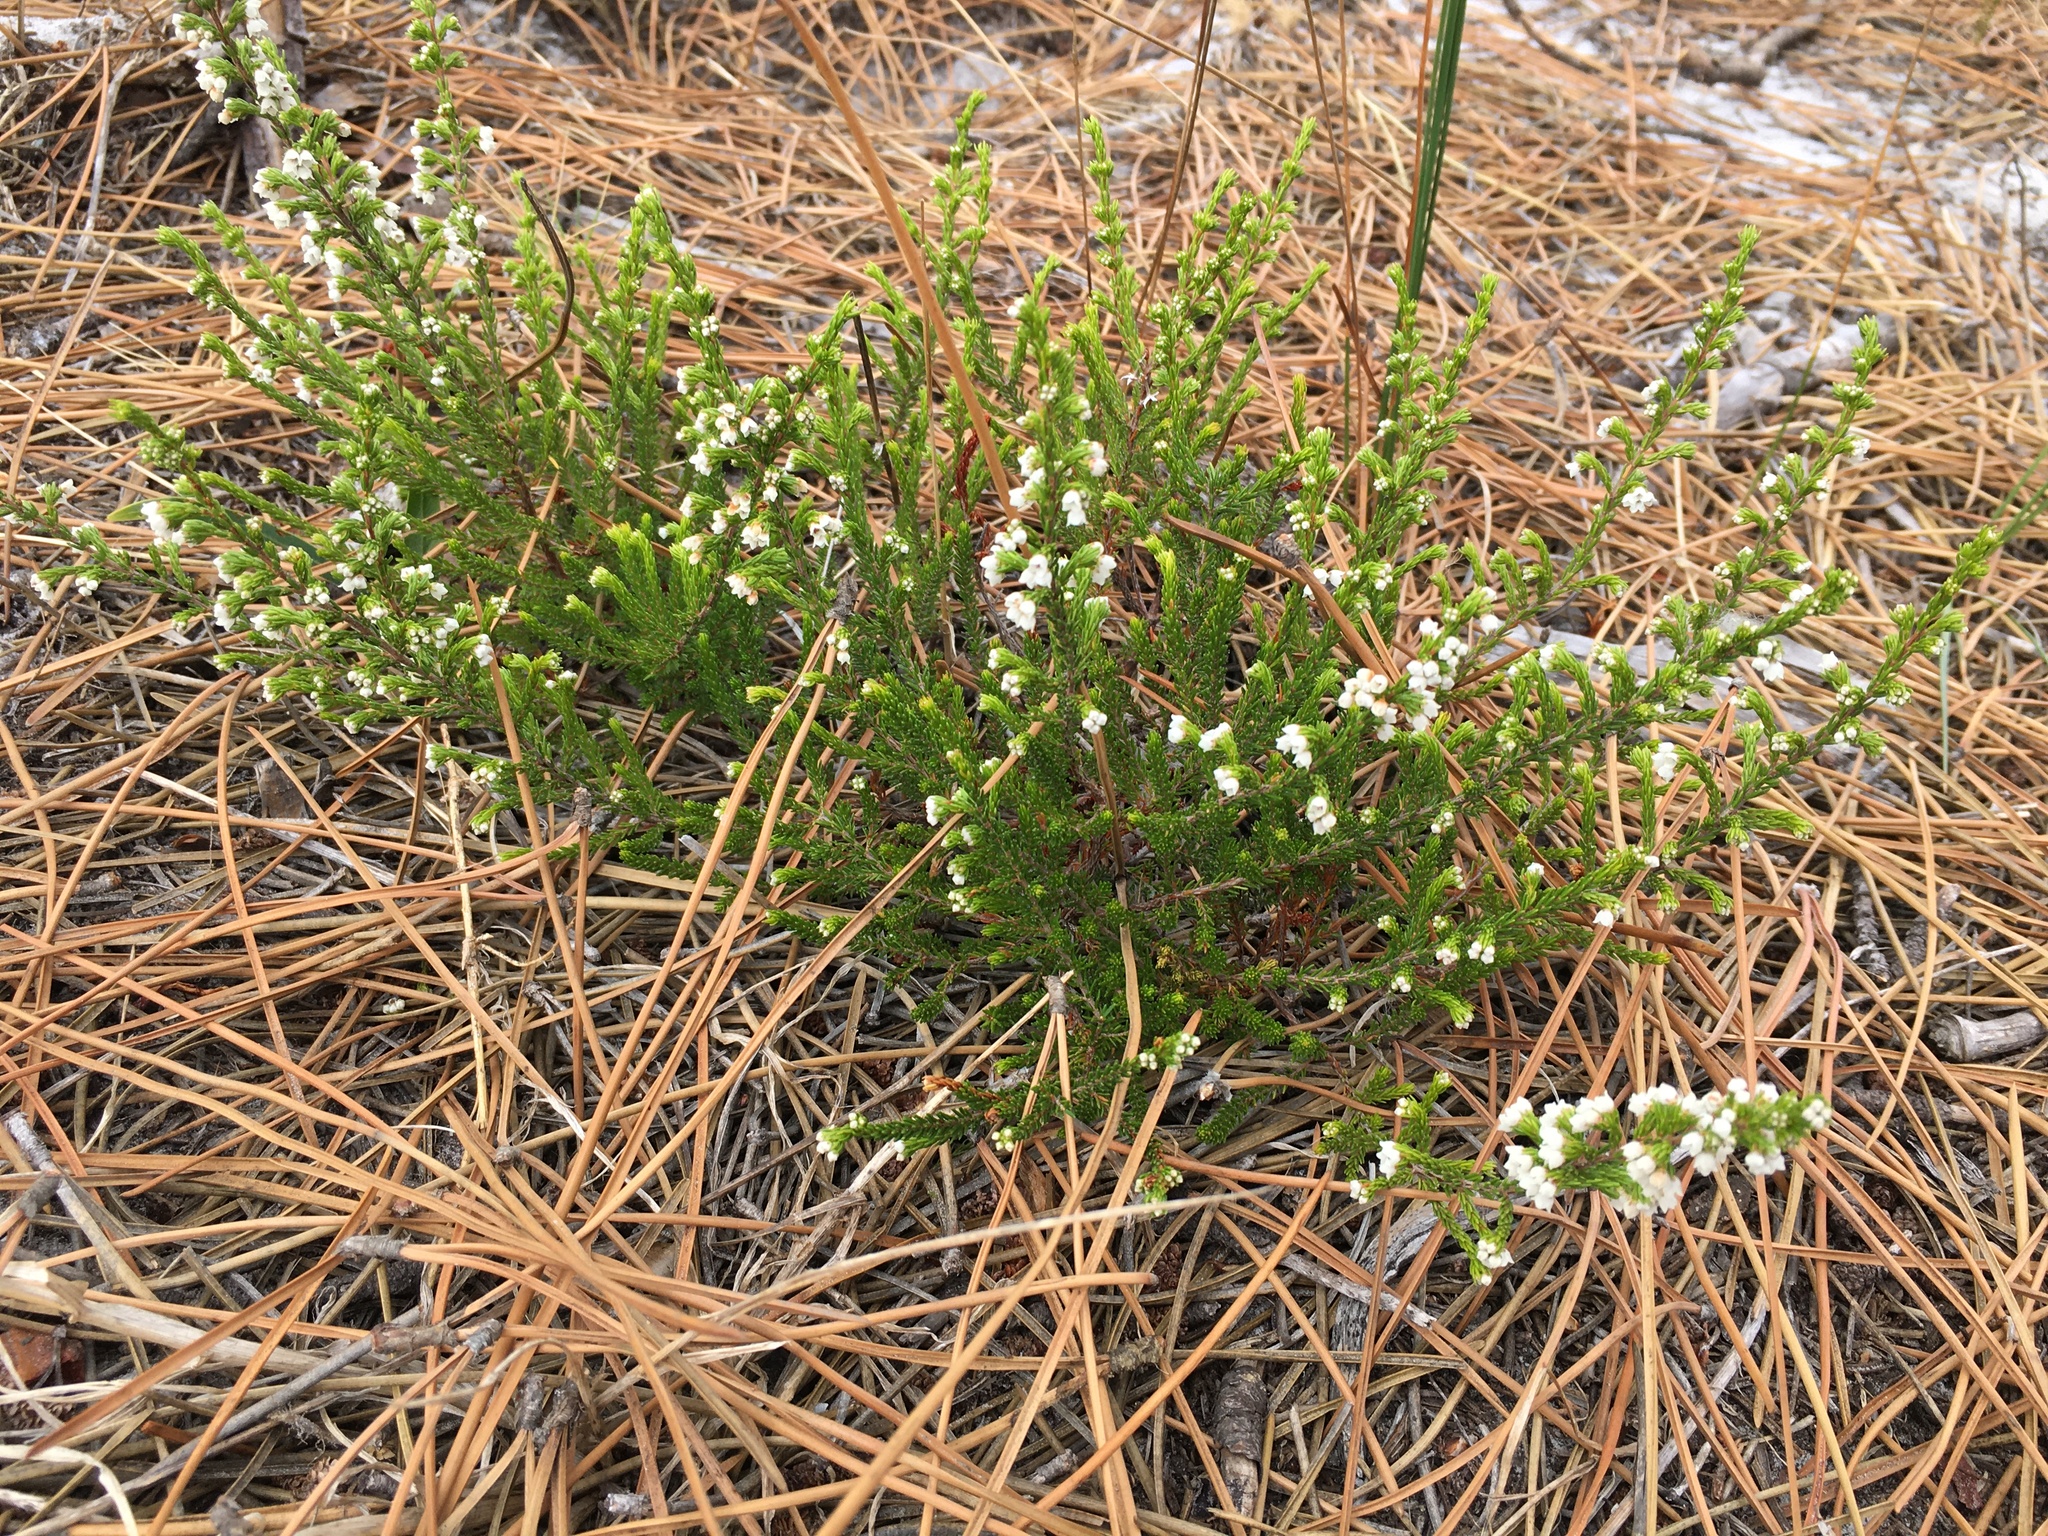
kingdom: Plantae
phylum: Tracheophyta
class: Magnoliopsida
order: Ericales
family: Ericaceae
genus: Erica
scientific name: Erica subdivaricata
